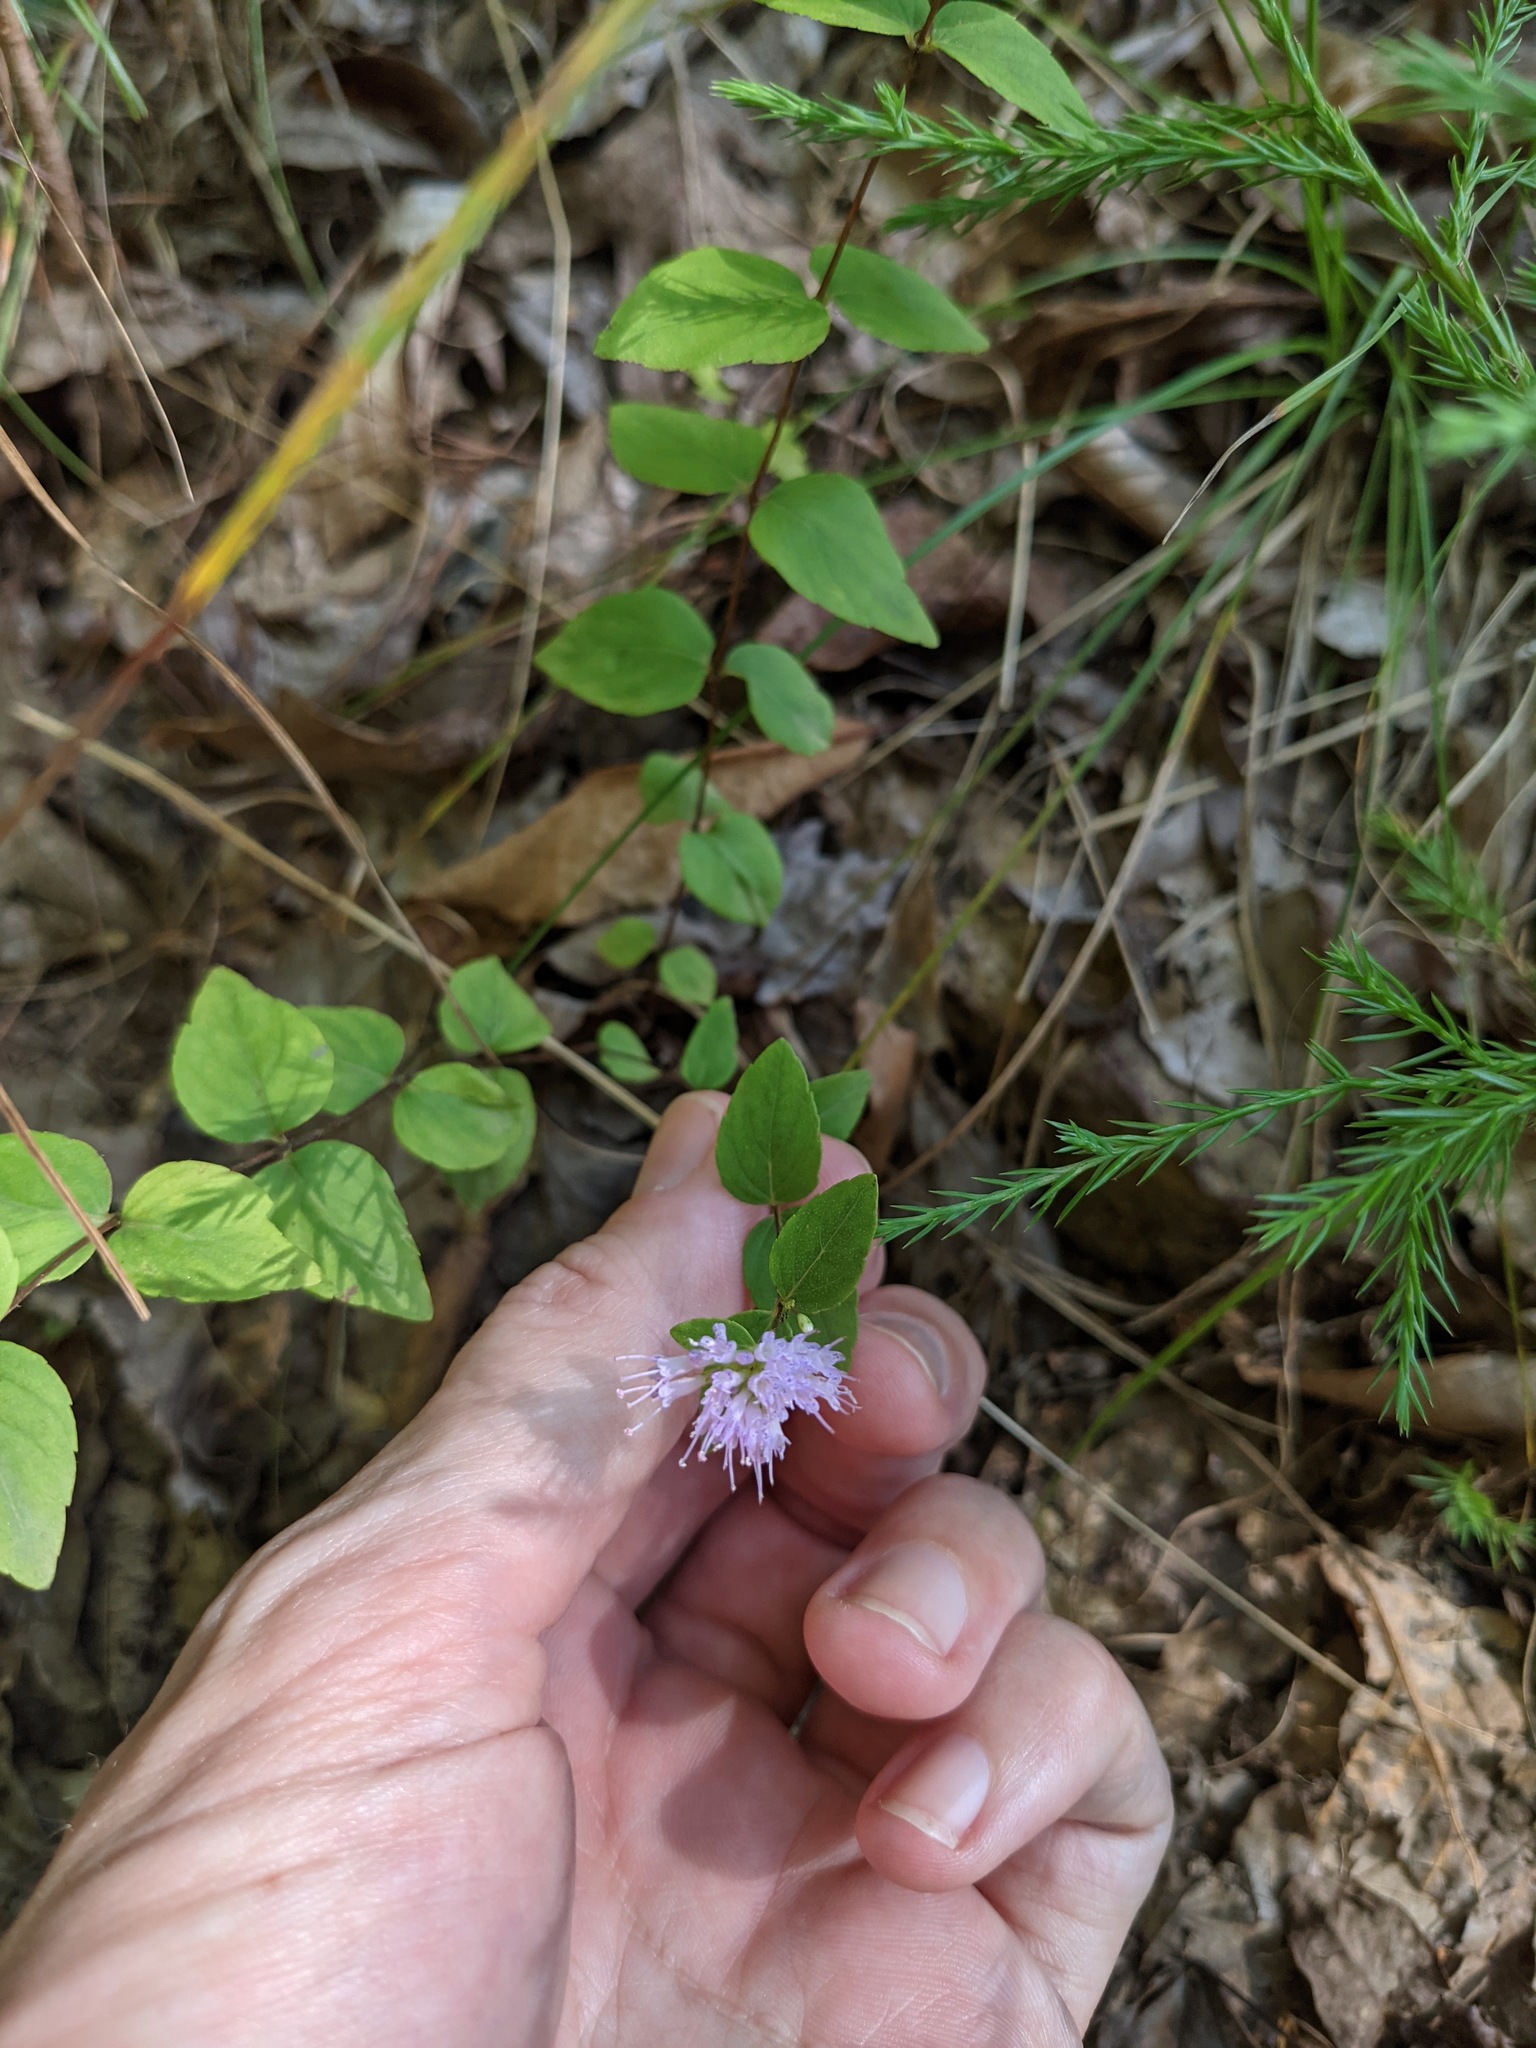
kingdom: Plantae
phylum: Tracheophyta
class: Magnoliopsida
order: Lamiales
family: Lamiaceae
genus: Cunila
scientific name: Cunila origanoides
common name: American dittany
